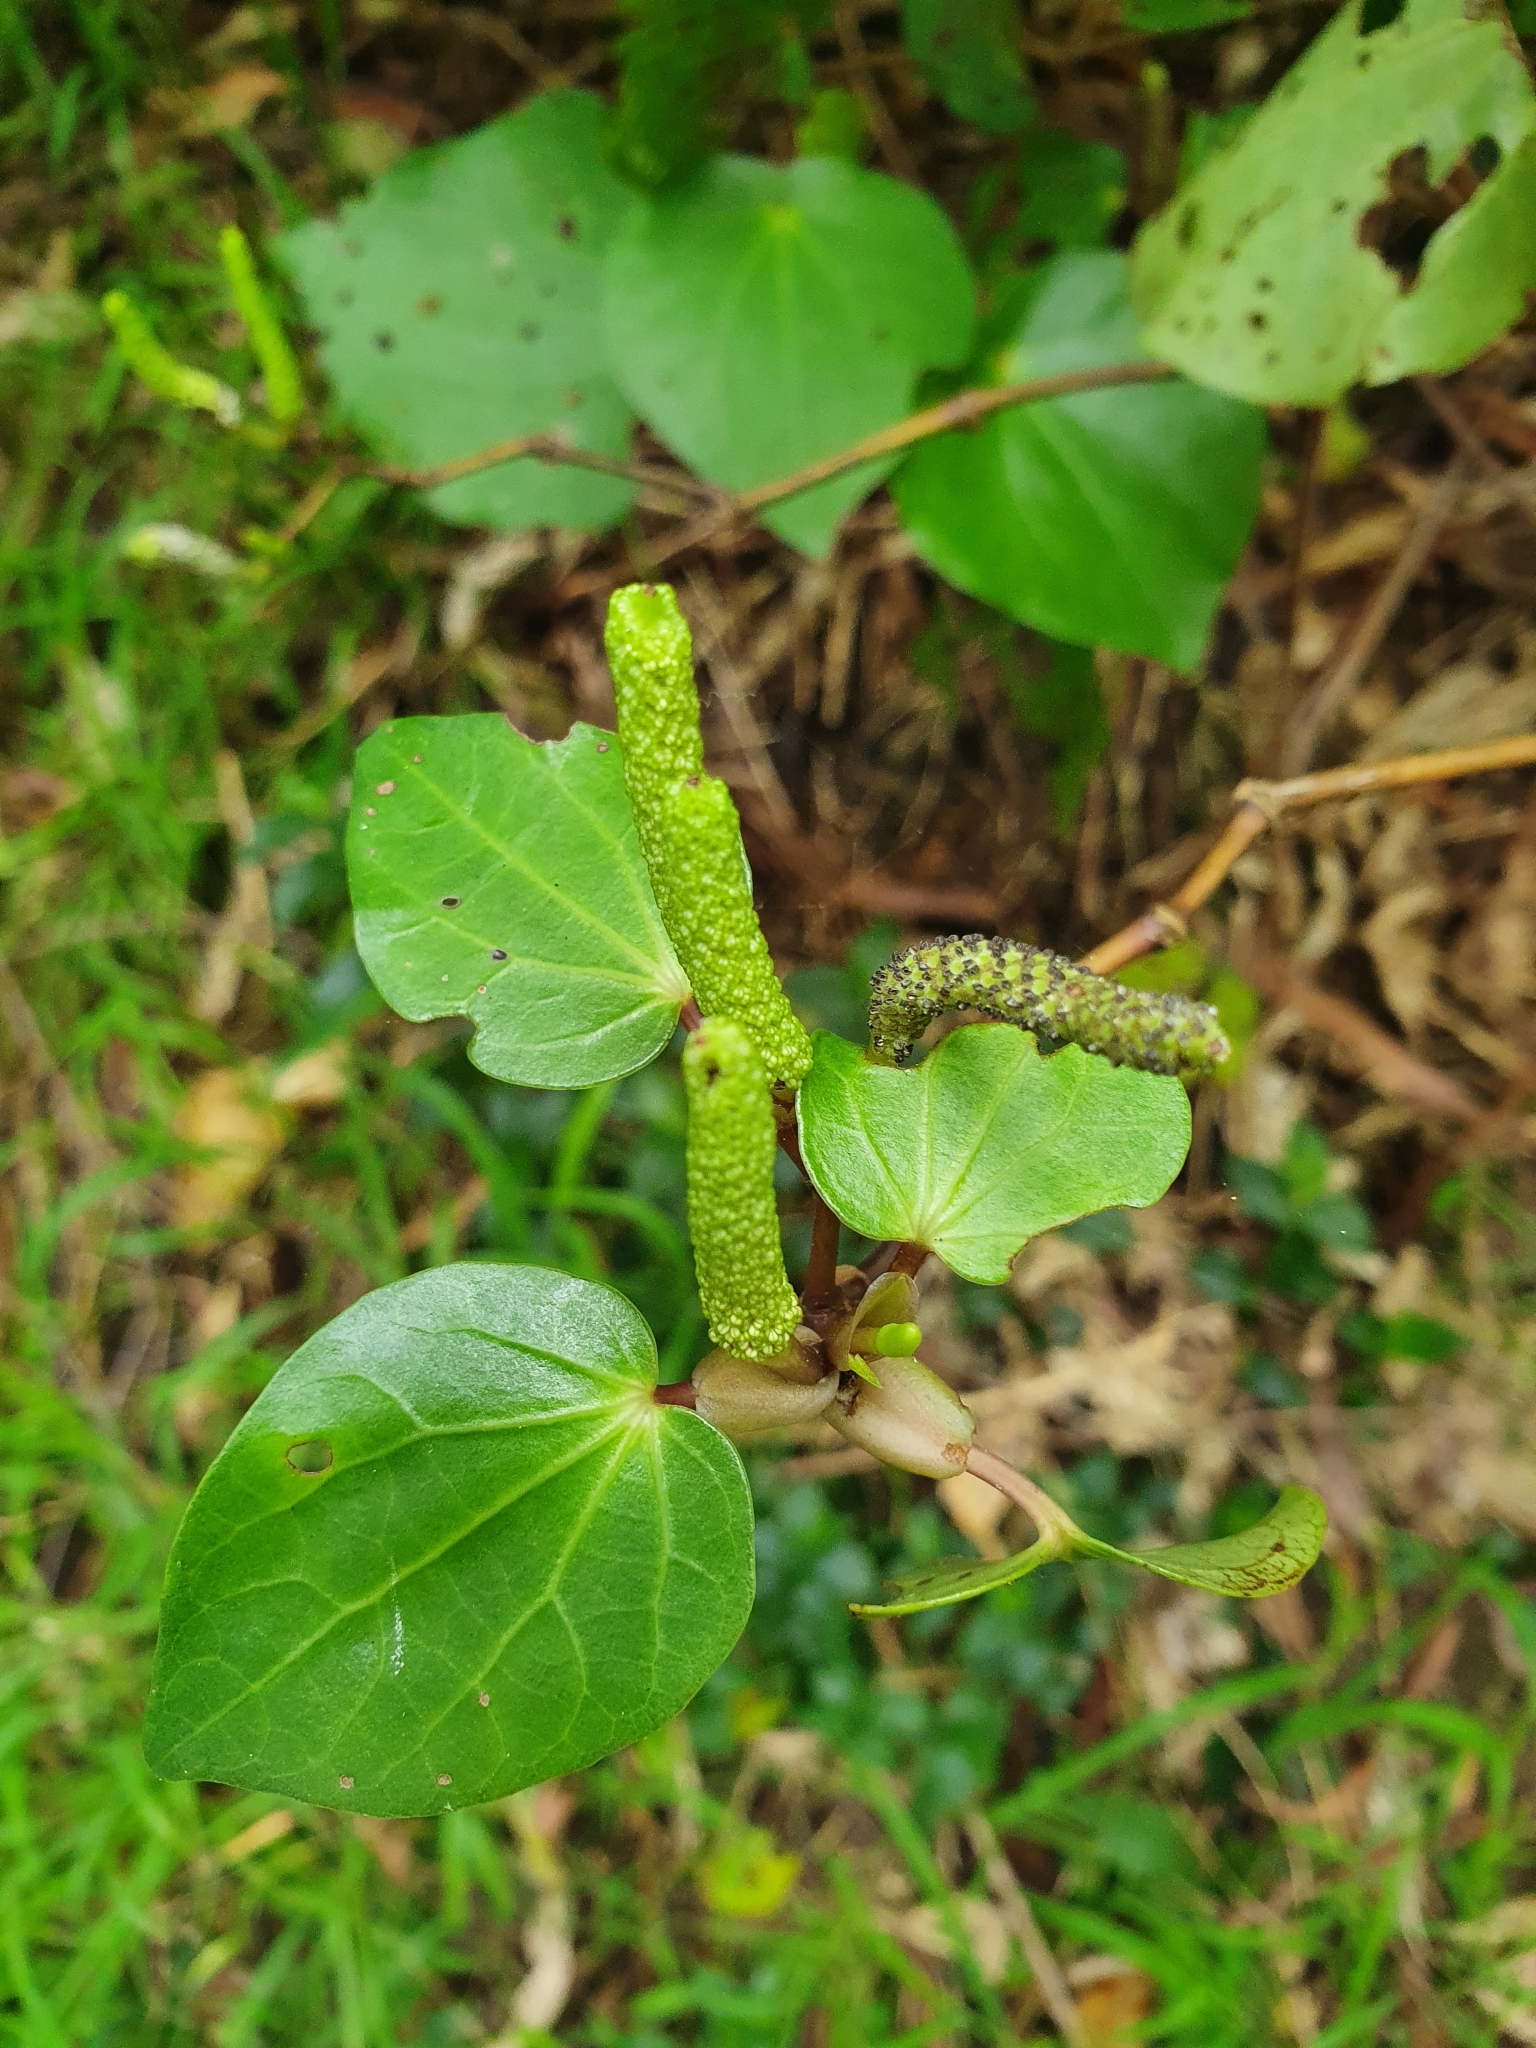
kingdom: Plantae
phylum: Tracheophyta
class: Magnoliopsida
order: Piperales
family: Piperaceae
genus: Macropiper
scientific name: Macropiper excelsum
